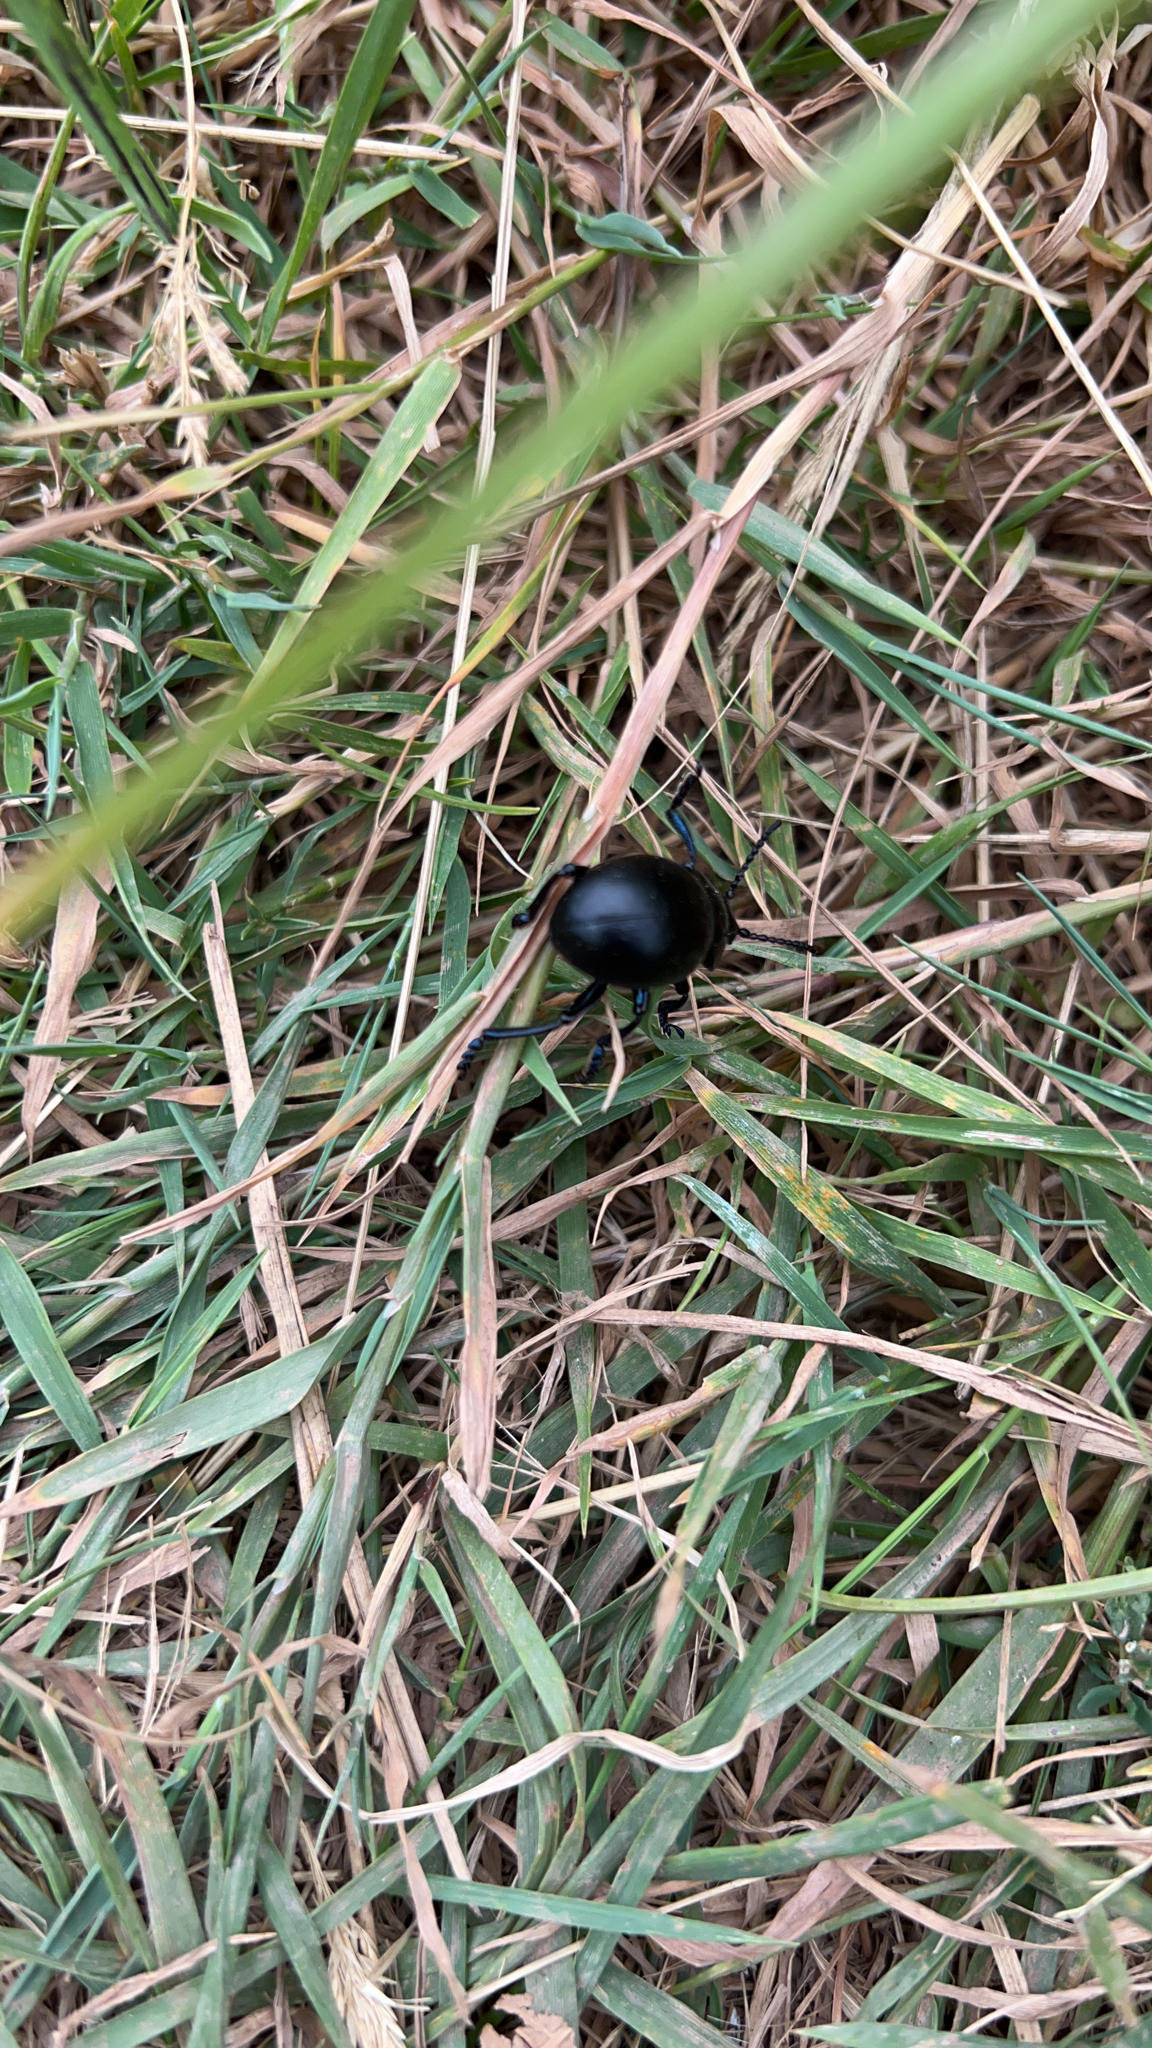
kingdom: Animalia
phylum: Arthropoda
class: Insecta
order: Coleoptera
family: Chrysomelidae
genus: Timarcha
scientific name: Timarcha tenebricosa
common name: Bloody-nosed beetle
